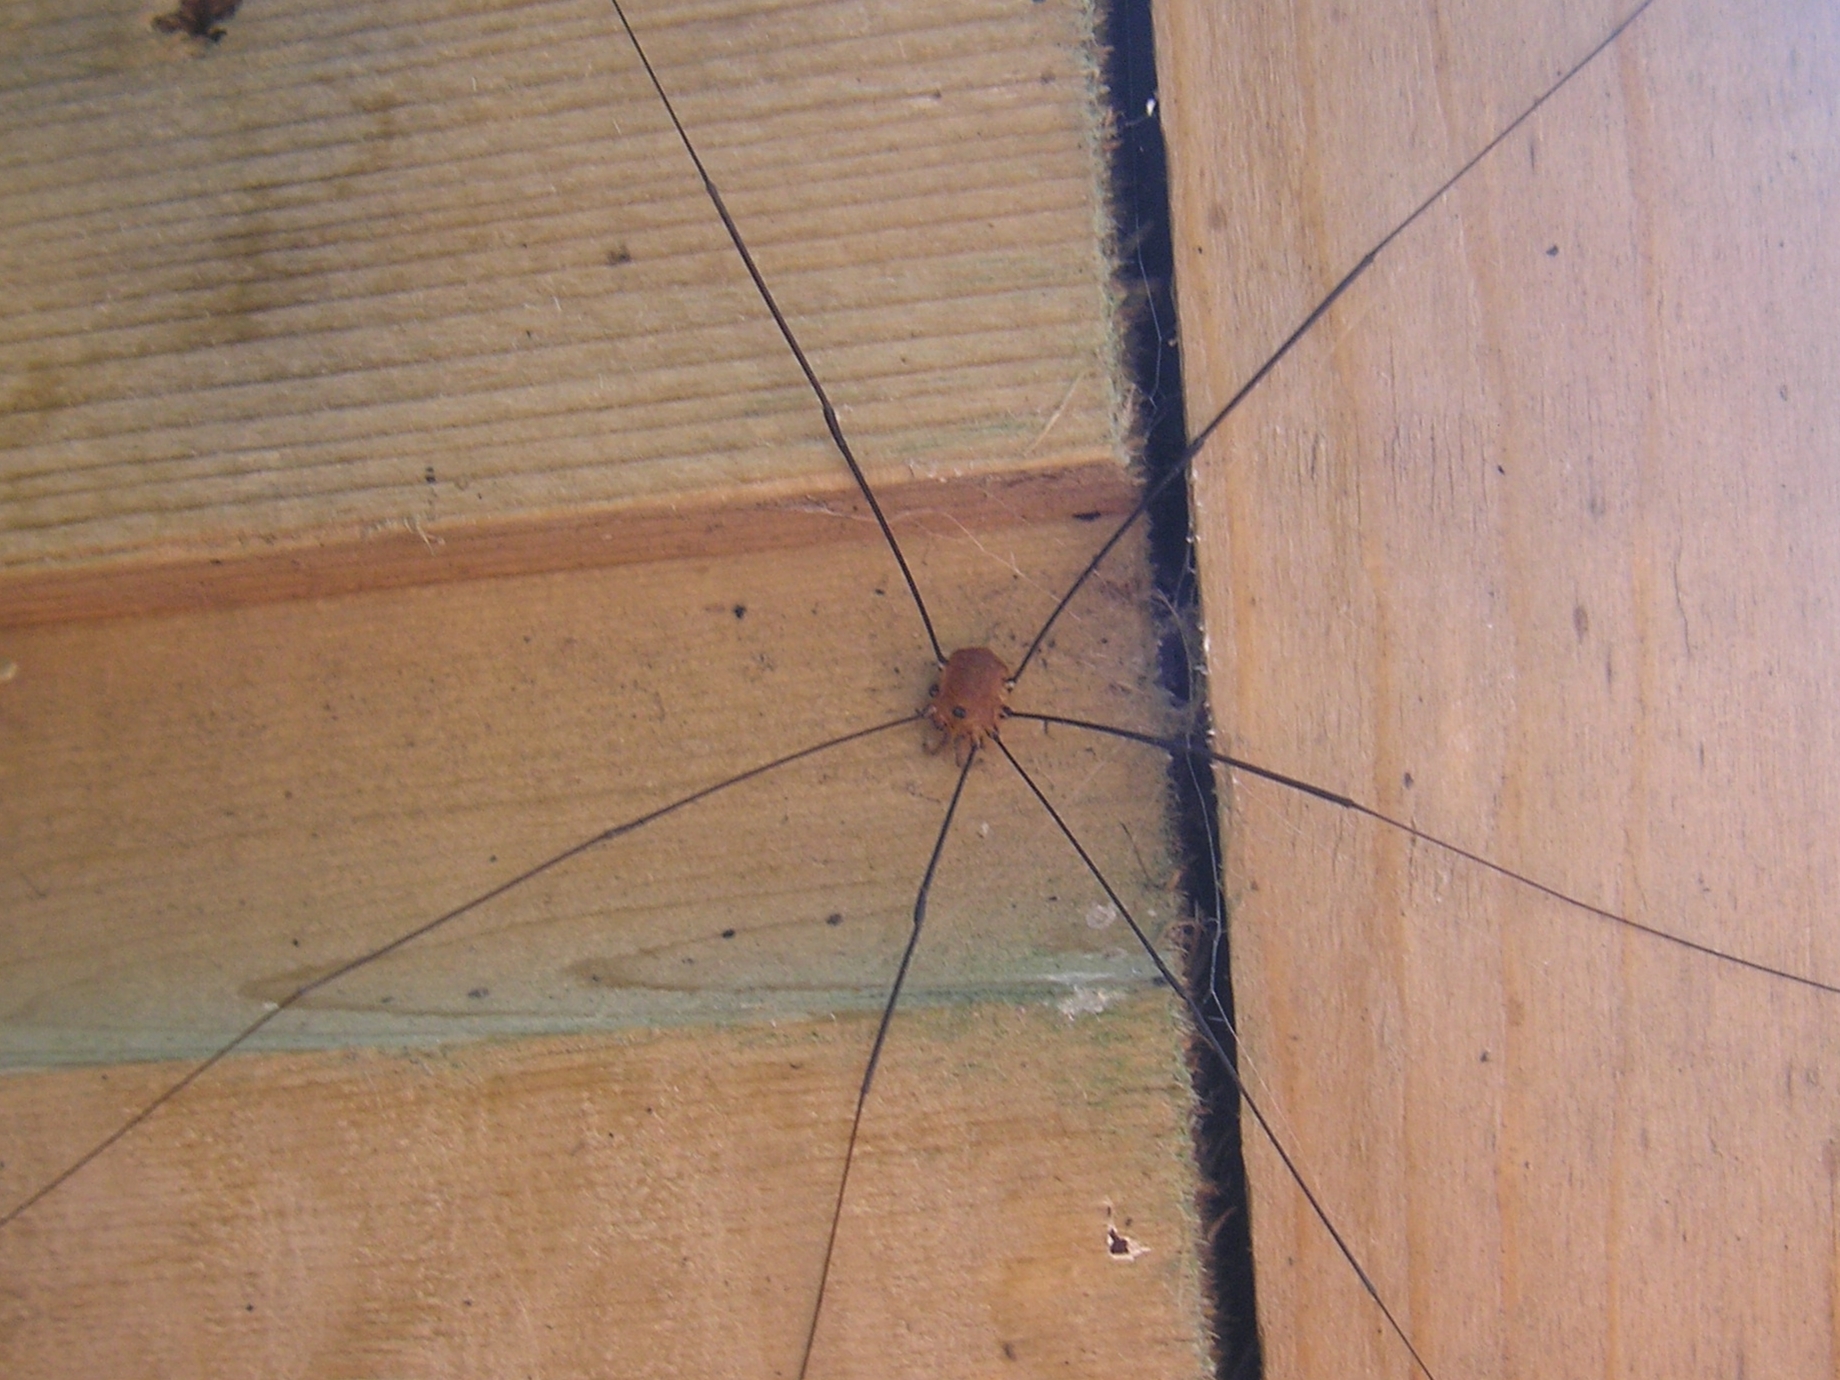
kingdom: Animalia
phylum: Arthropoda
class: Arachnida
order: Opiliones
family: Sclerosomatidae
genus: Leiobunum
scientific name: Leiobunum rotundum
